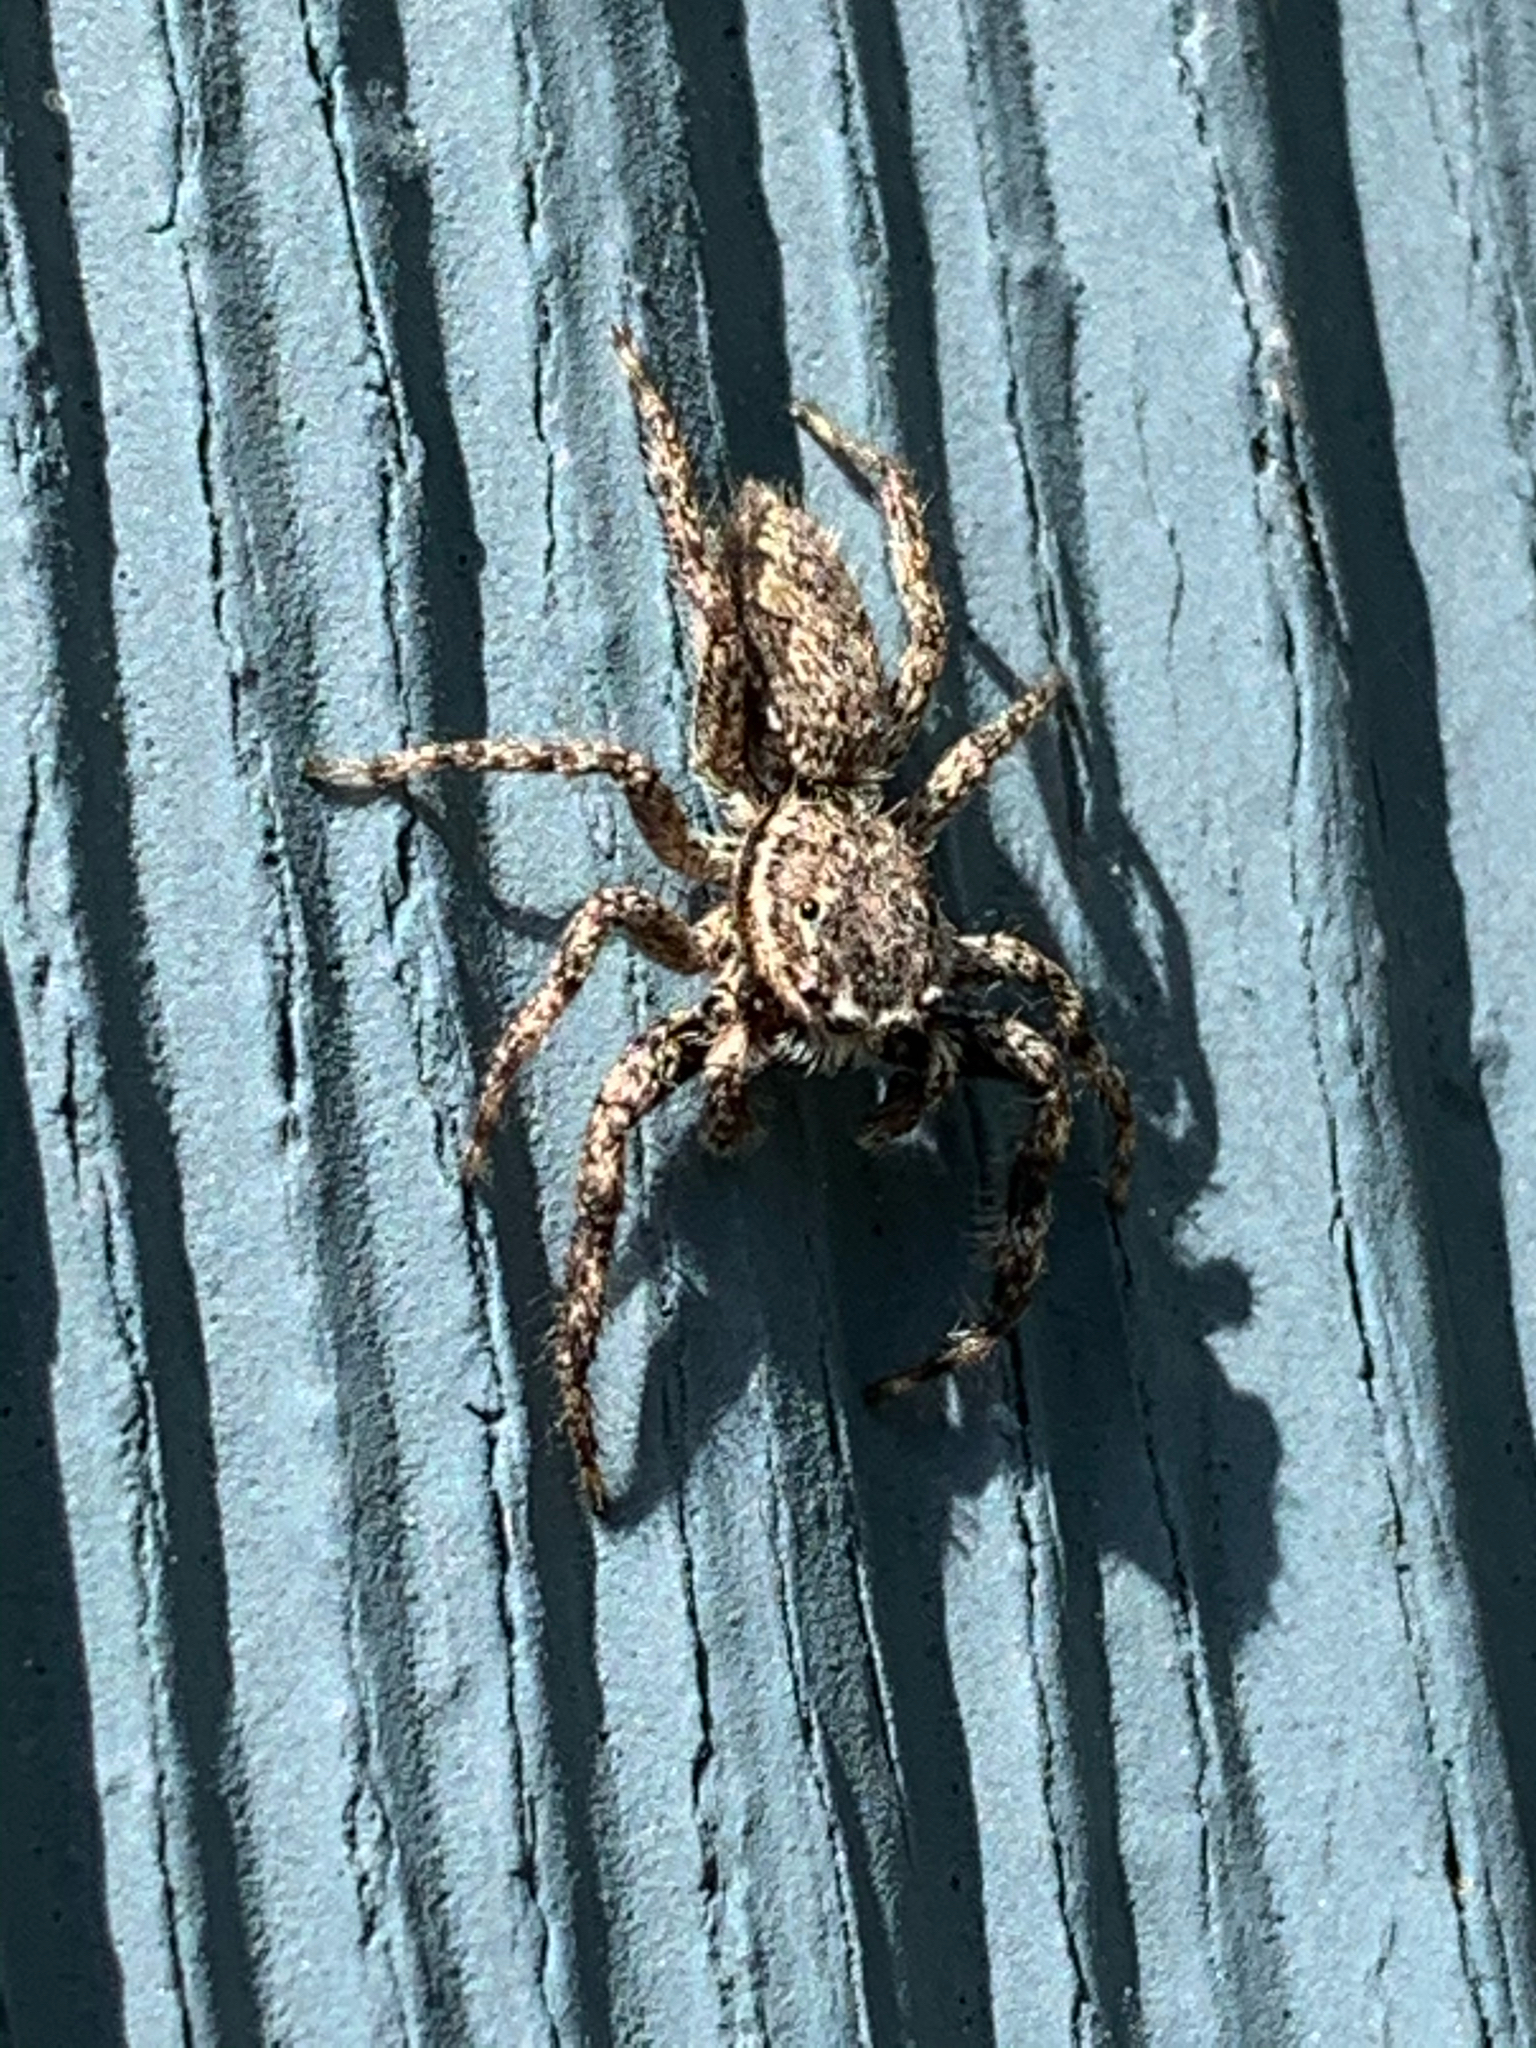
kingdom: Animalia
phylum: Arthropoda
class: Arachnida
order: Araneae
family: Salticidae
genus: Platycryptus
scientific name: Platycryptus undatus
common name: Tan jumping spider
